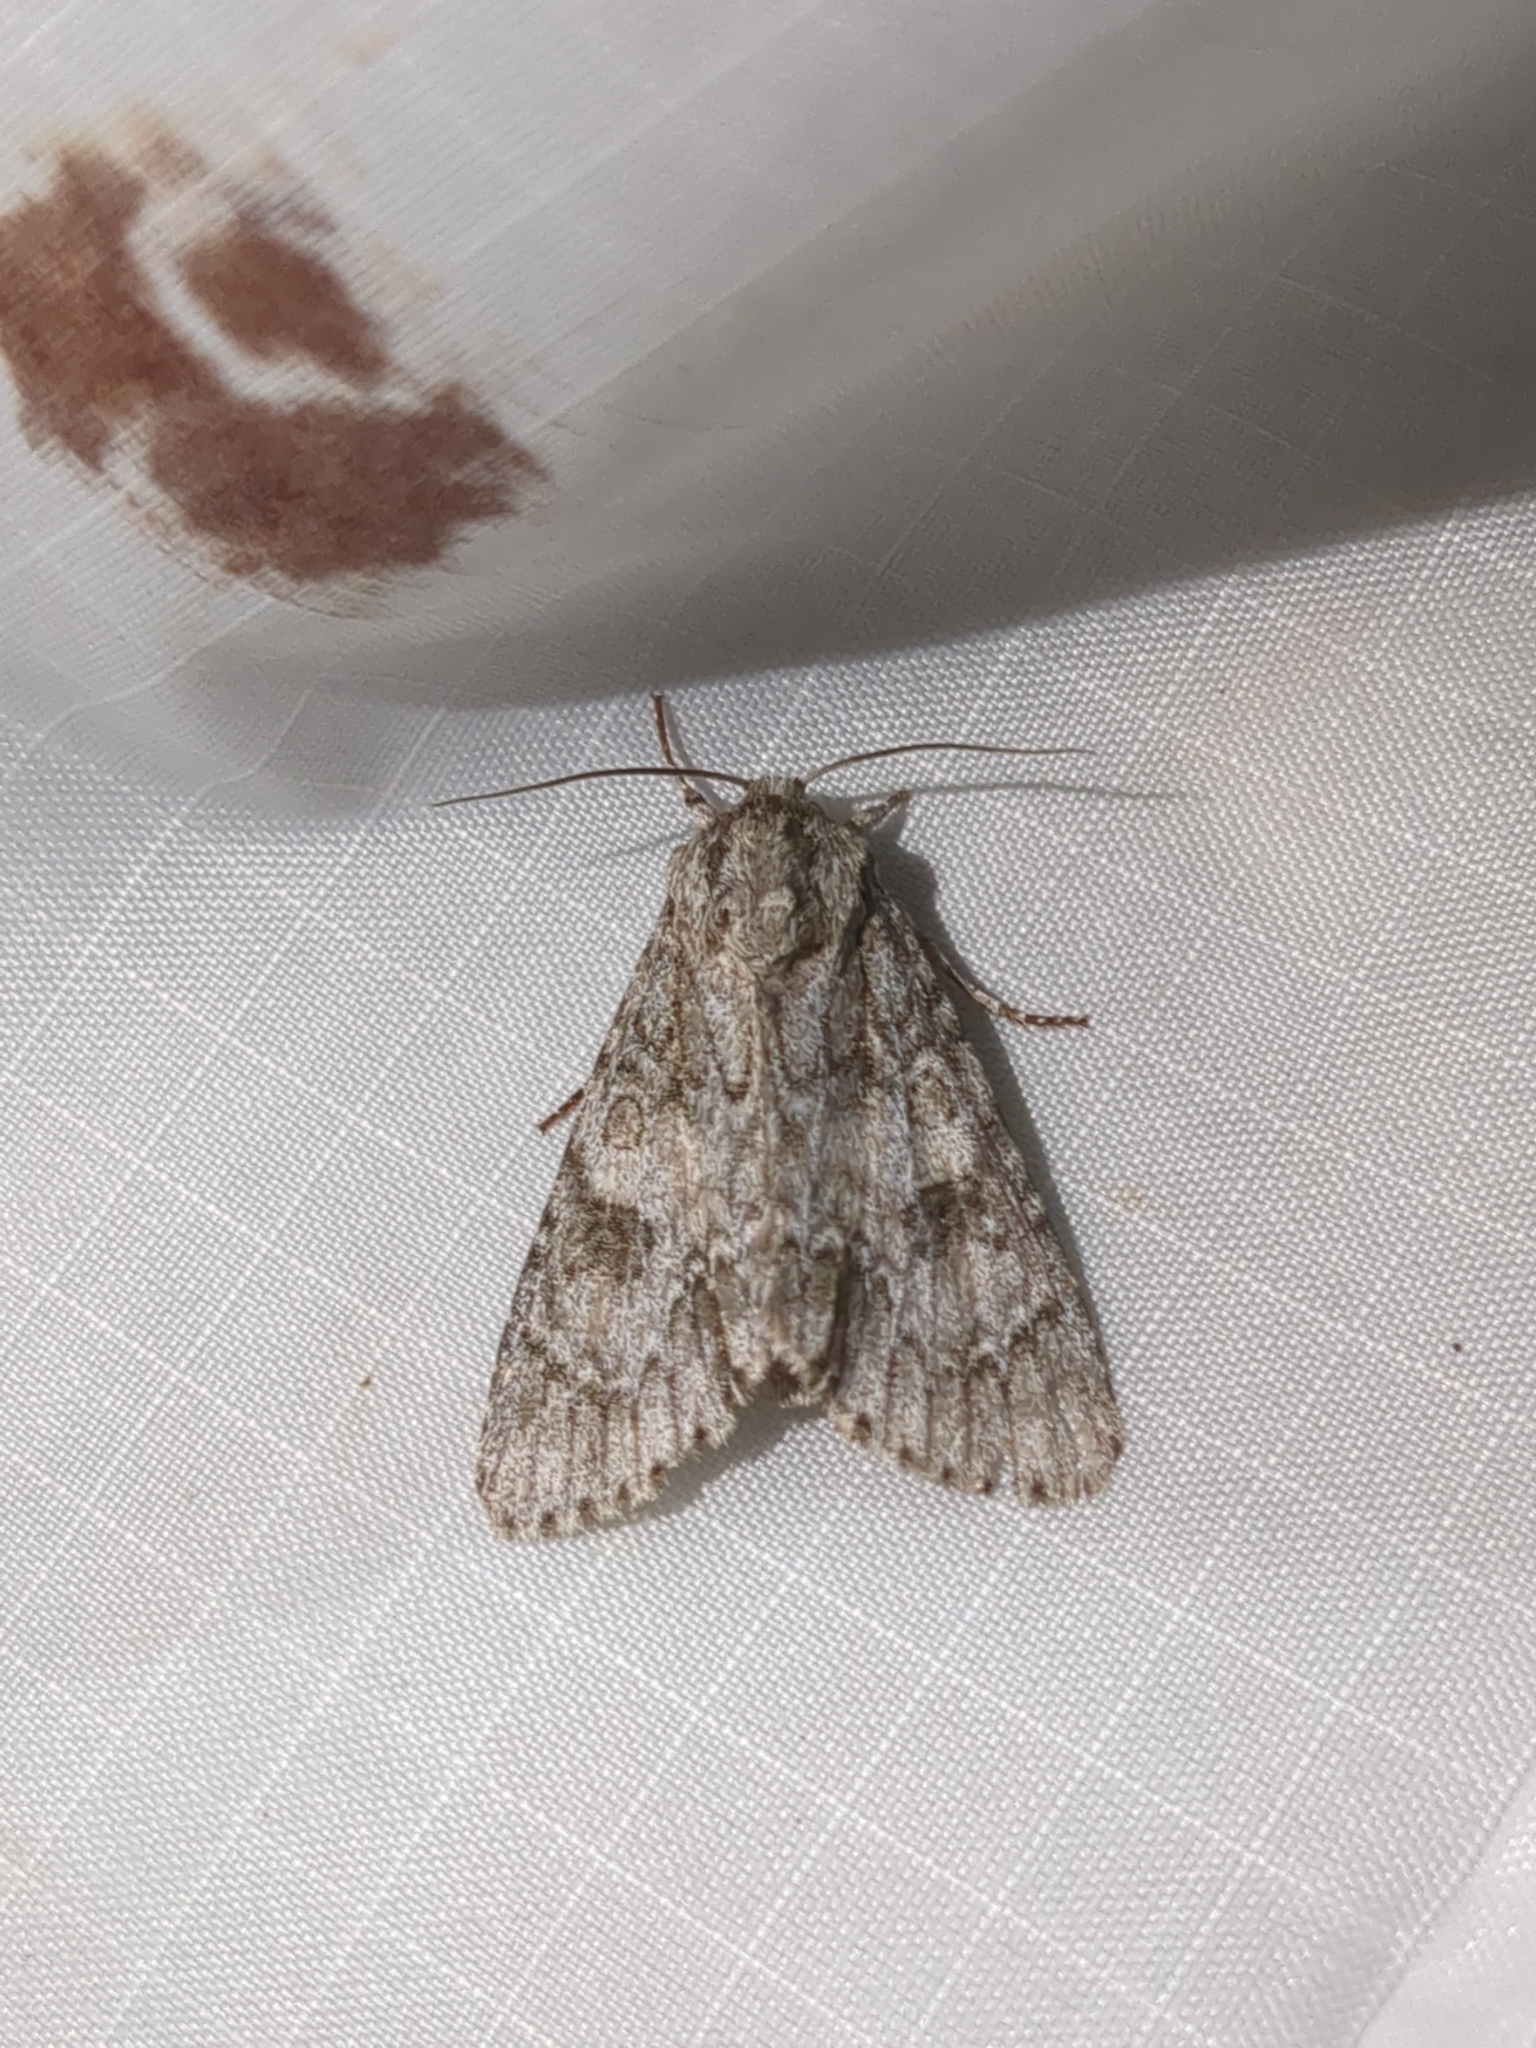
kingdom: Animalia
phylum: Arthropoda
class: Insecta
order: Lepidoptera
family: Noctuidae
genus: Acronicta
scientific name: Acronicta rubricoma
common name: Hackberry dagger
